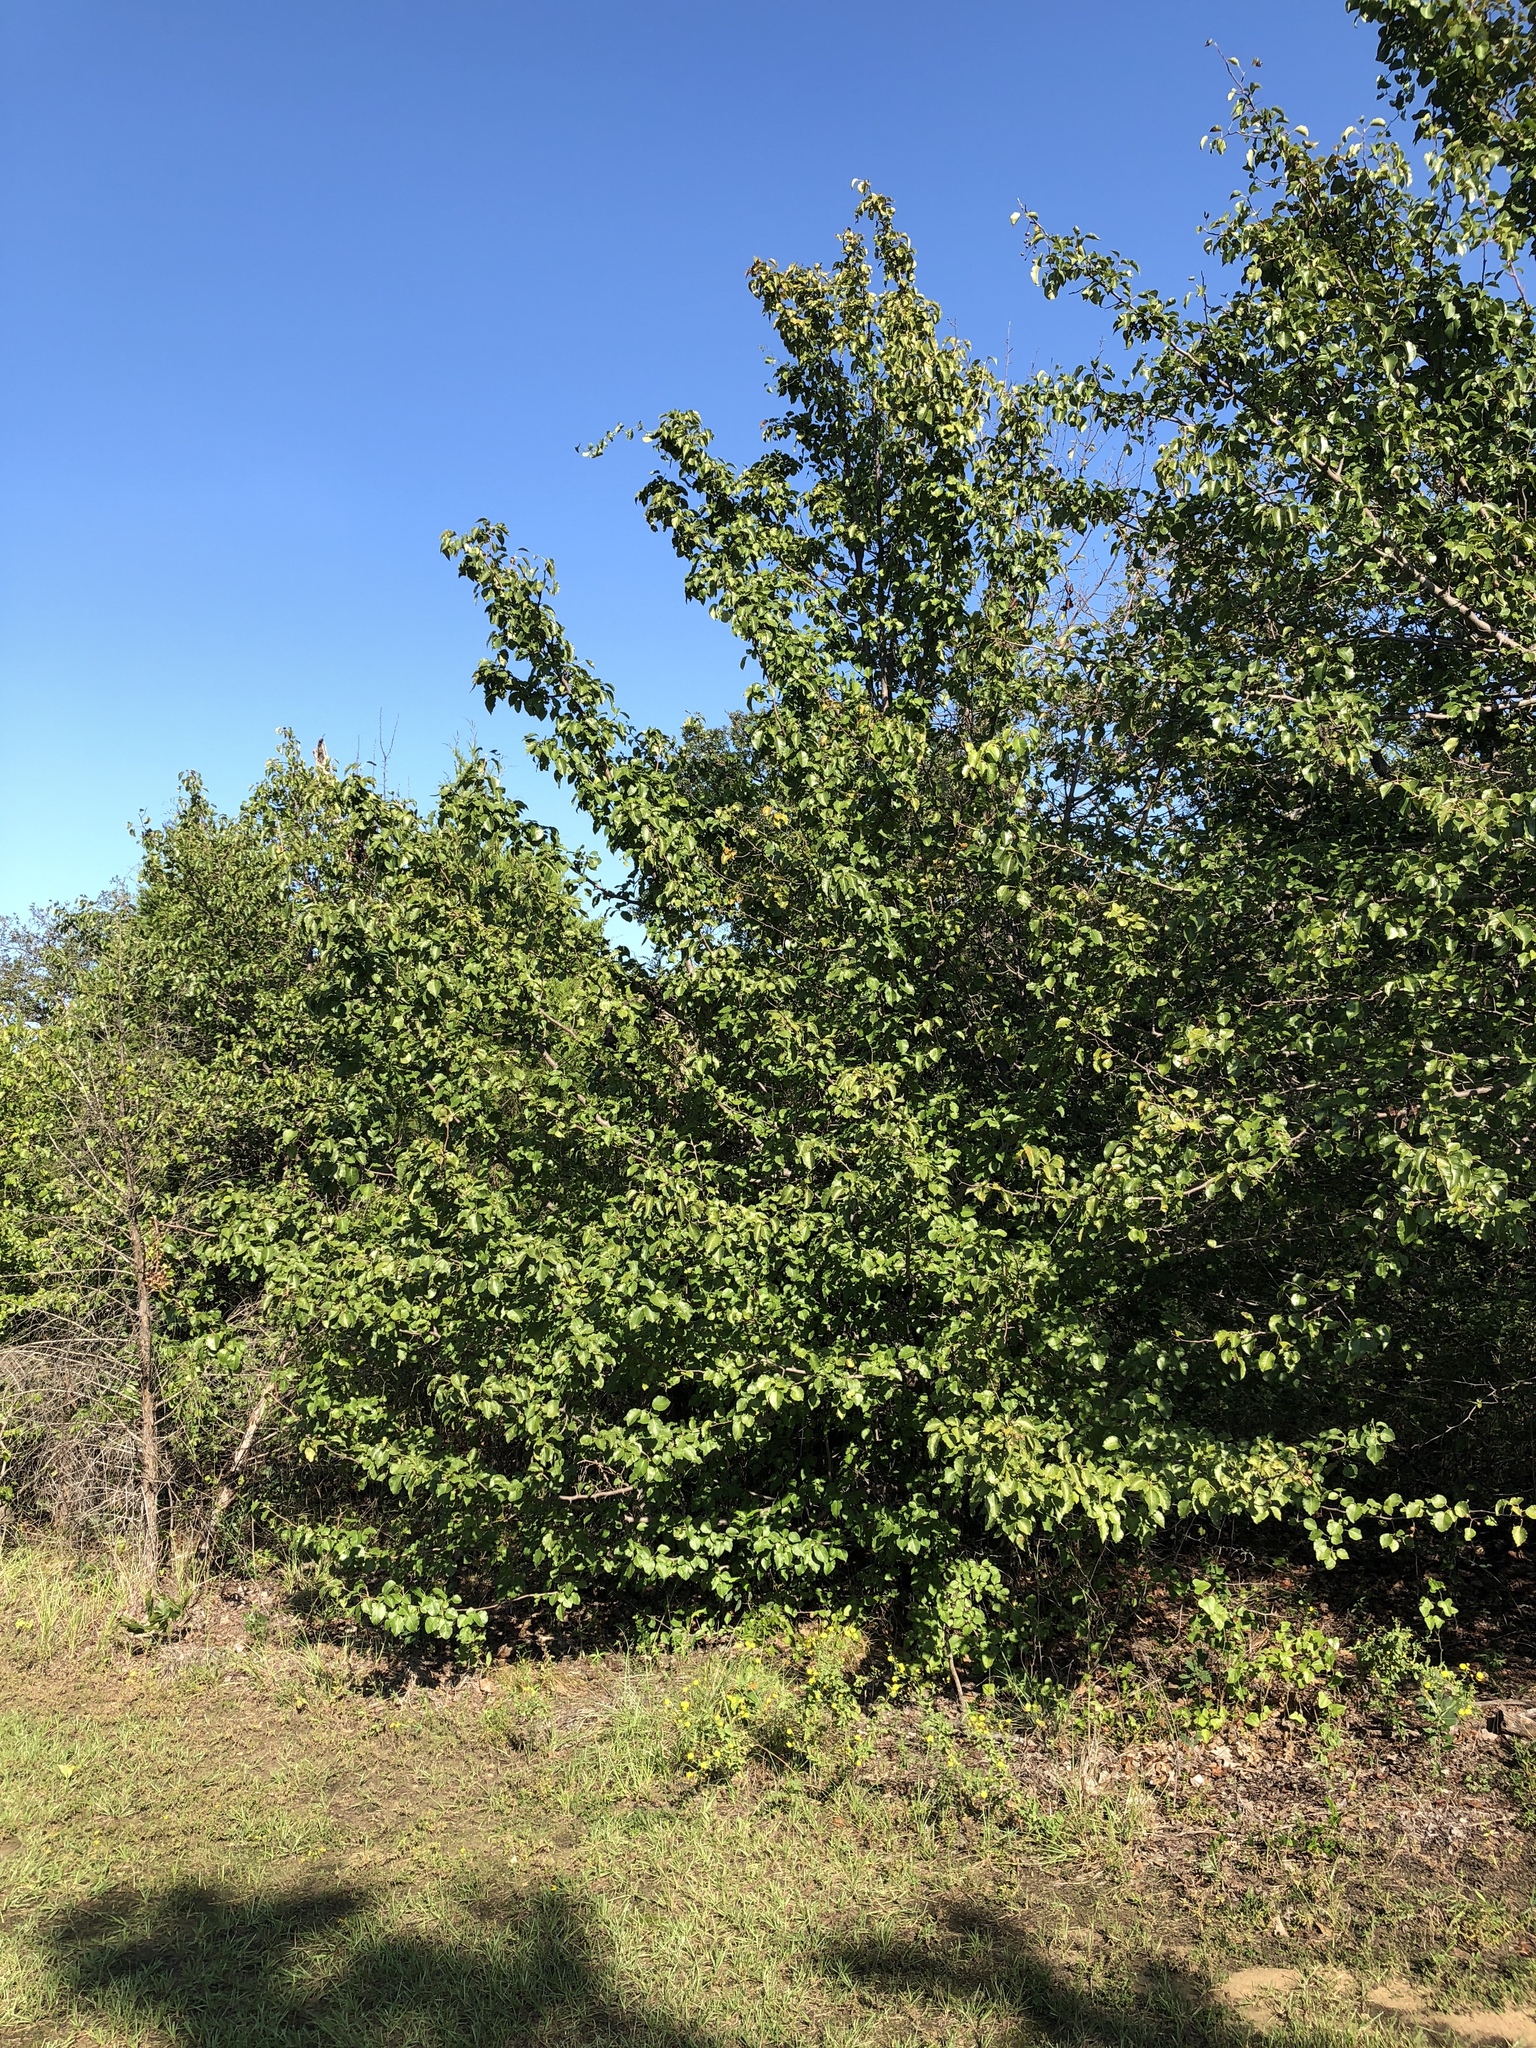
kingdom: Plantae
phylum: Tracheophyta
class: Magnoliopsida
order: Rosales
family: Rosaceae
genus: Pyrus
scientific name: Pyrus calleryana
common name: Callery pear
